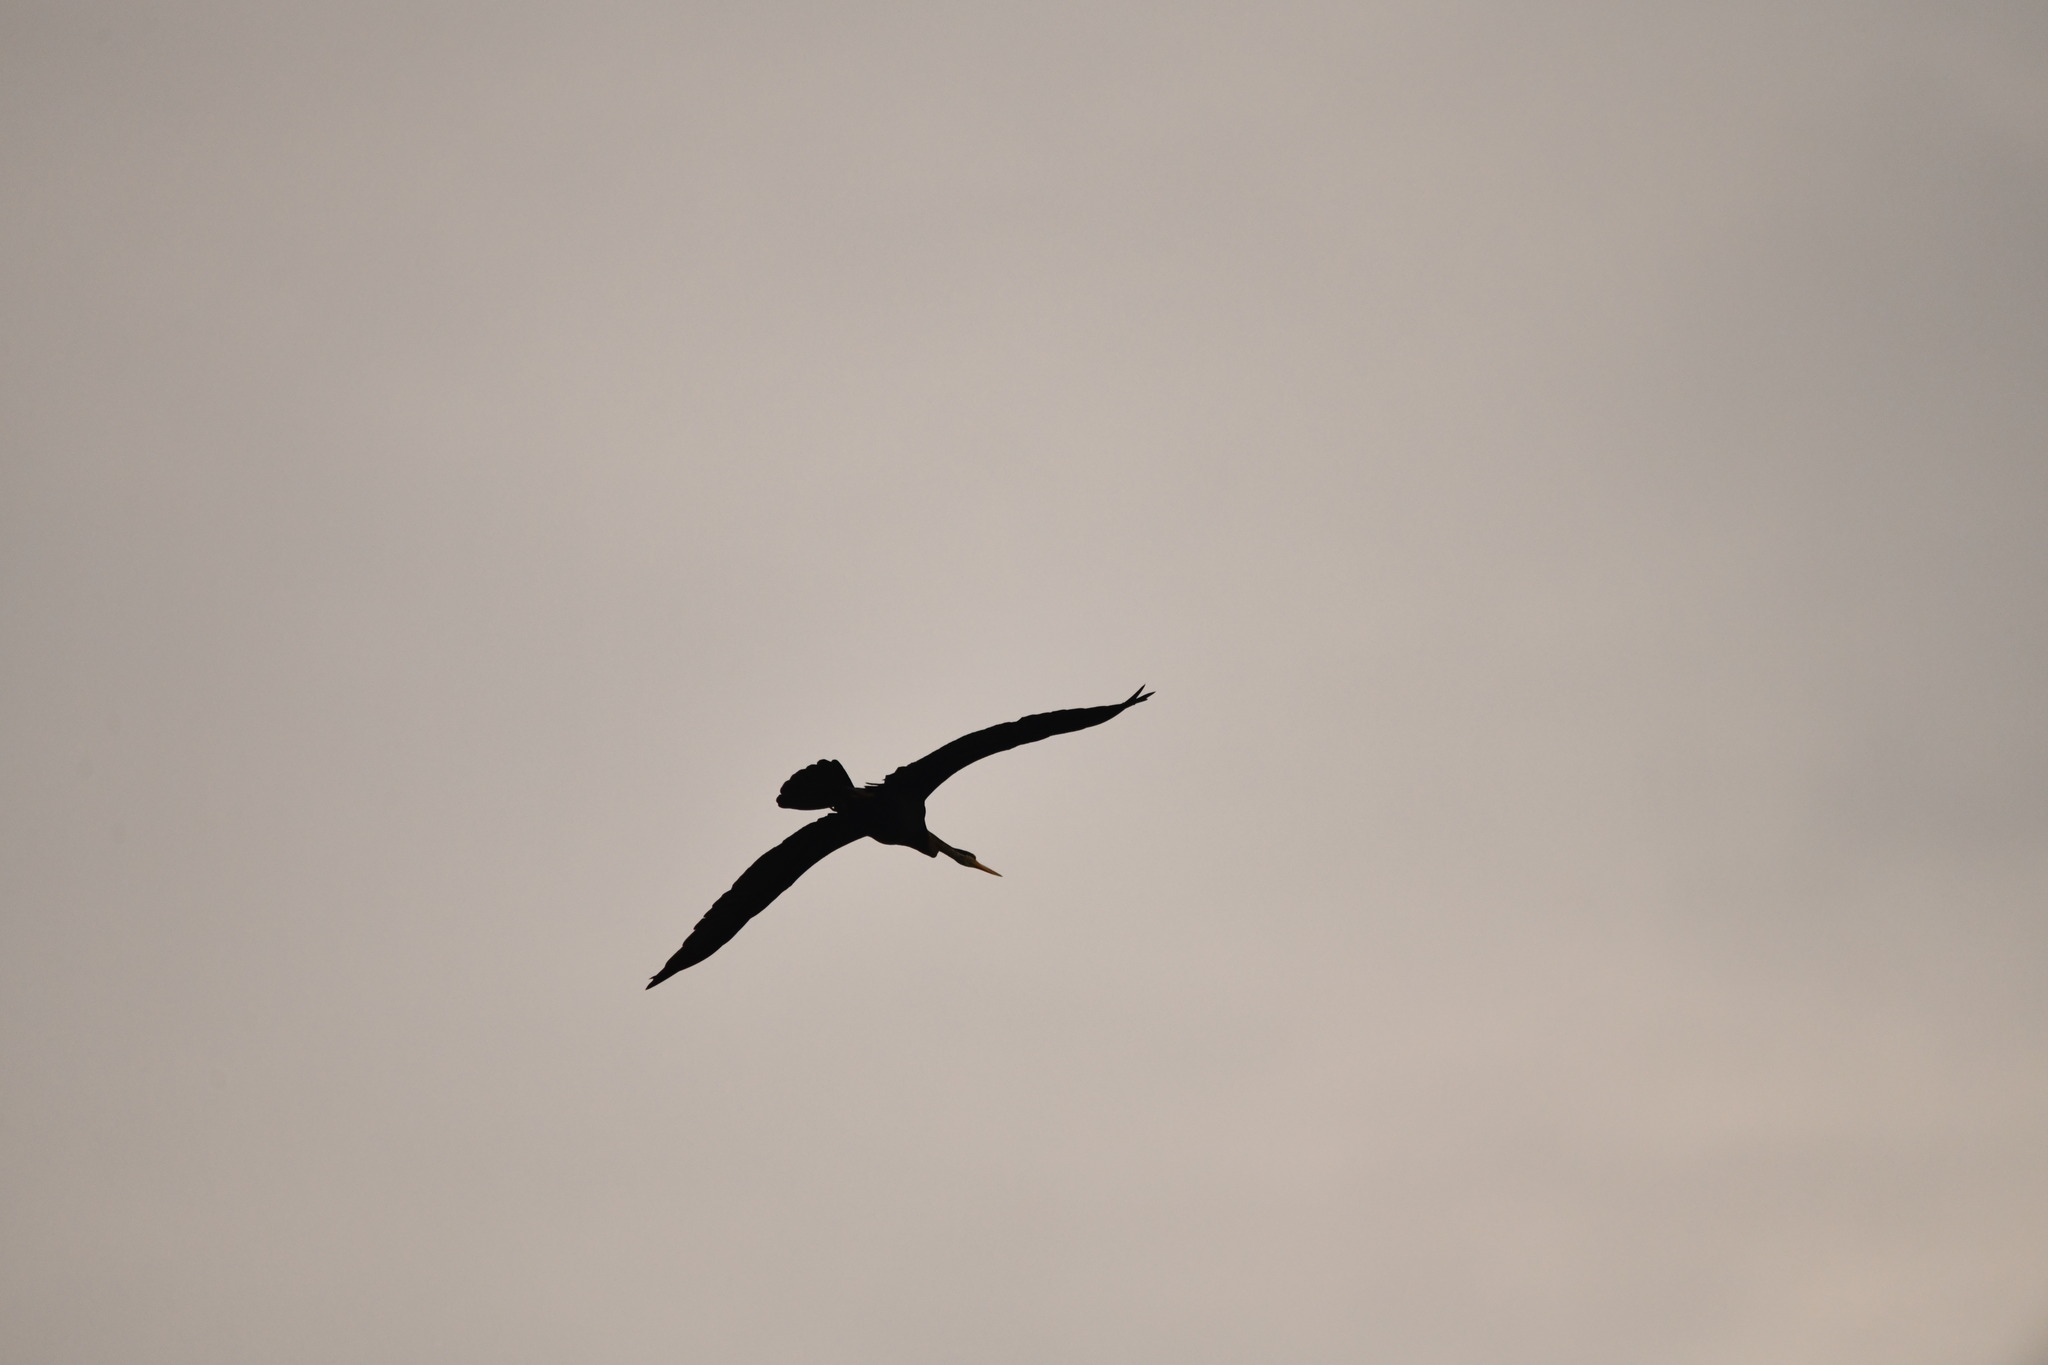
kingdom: Animalia
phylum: Chordata
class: Aves
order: Suliformes
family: Anhingidae
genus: Anhinga
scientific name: Anhinga melanogaster
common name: Oriental darter
